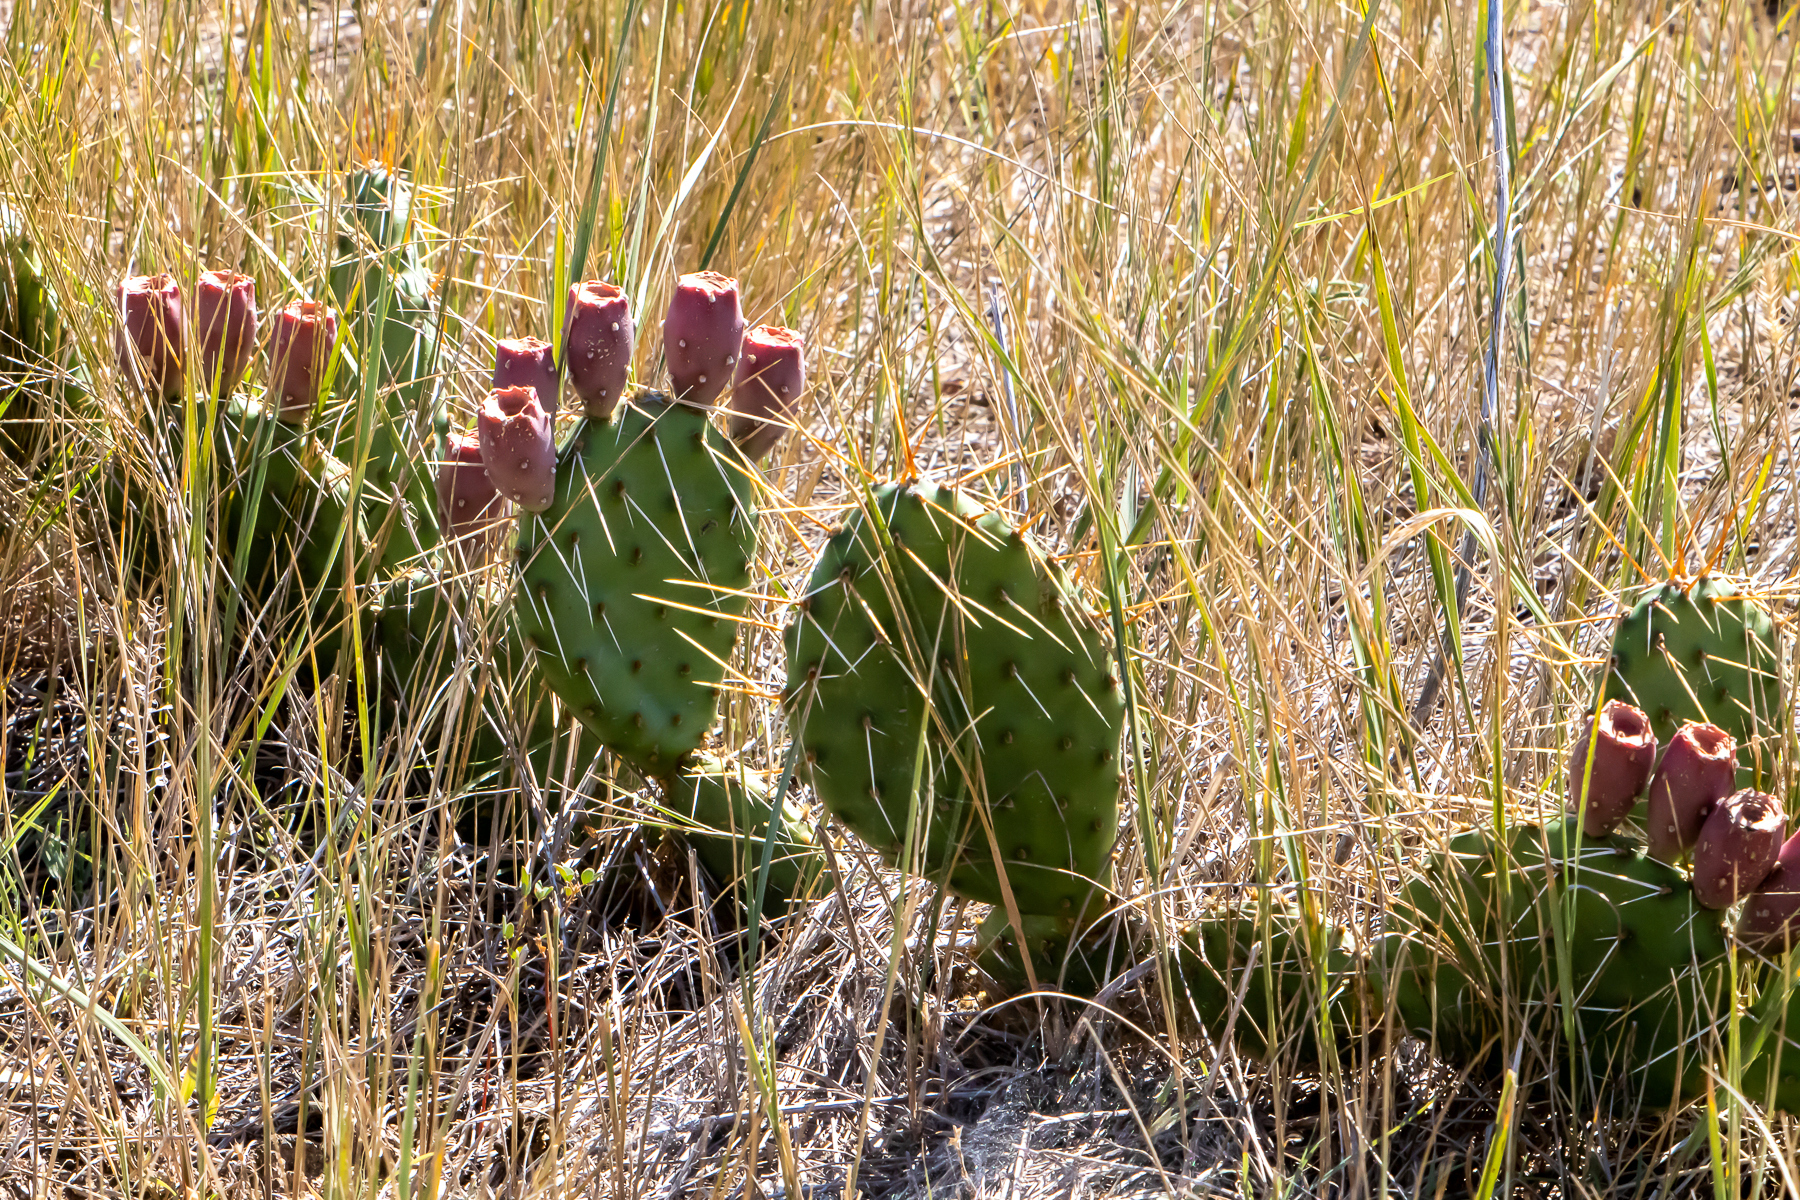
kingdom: Plantae
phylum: Tracheophyta
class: Magnoliopsida
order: Caryophyllales
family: Cactaceae
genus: Opuntia
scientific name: Opuntia cymochila
